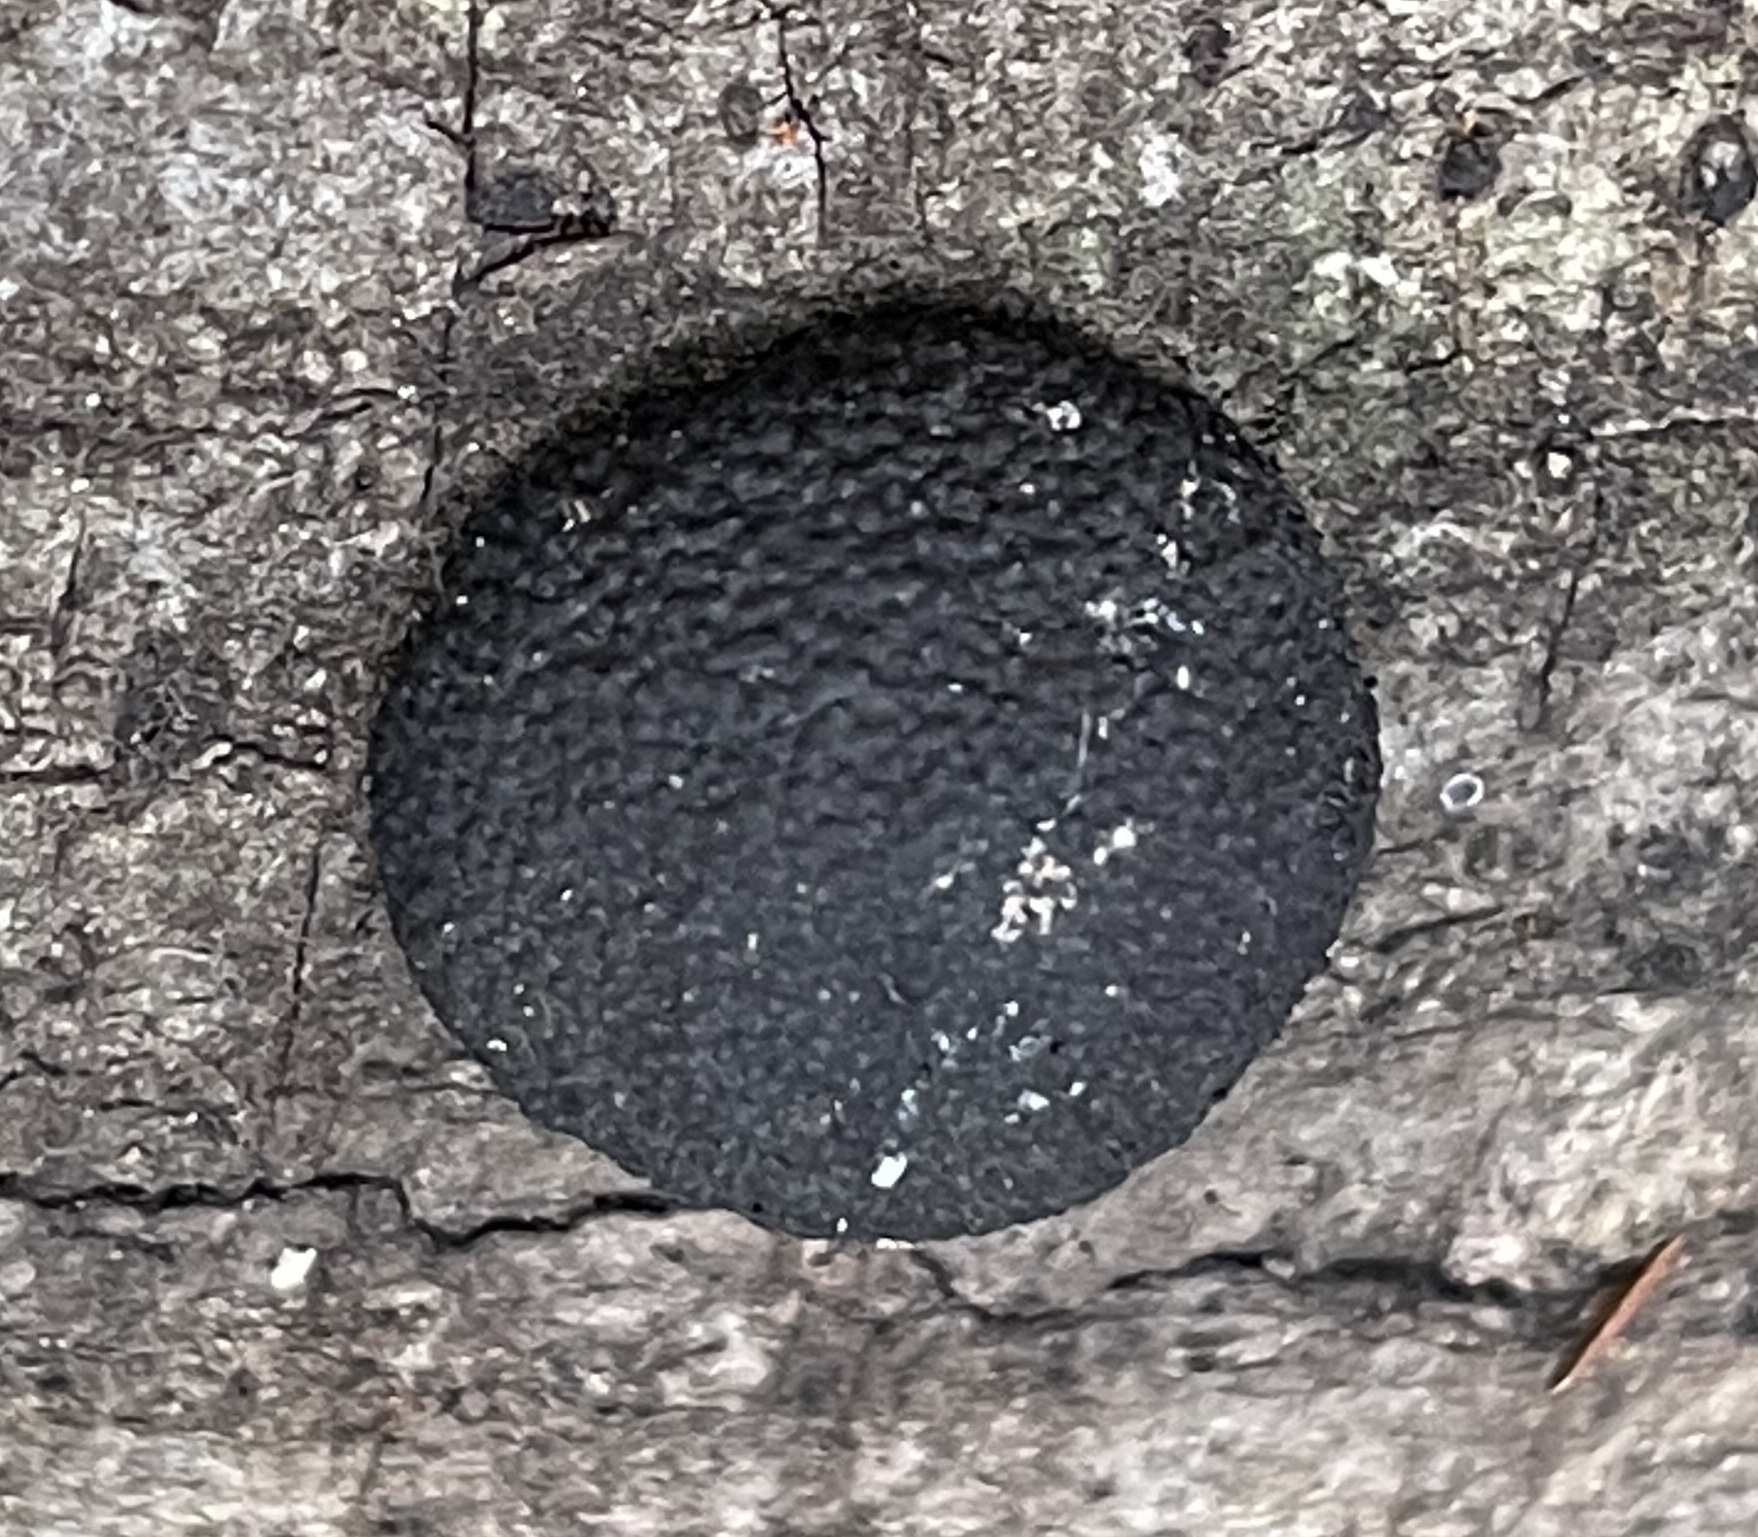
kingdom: Fungi
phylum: Ascomycota
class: Sordariomycetes
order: Xylariales
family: Hypoxylaceae
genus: Annulohypoxylon
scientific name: Annulohypoxylon thouarsianum
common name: Cramp balls
